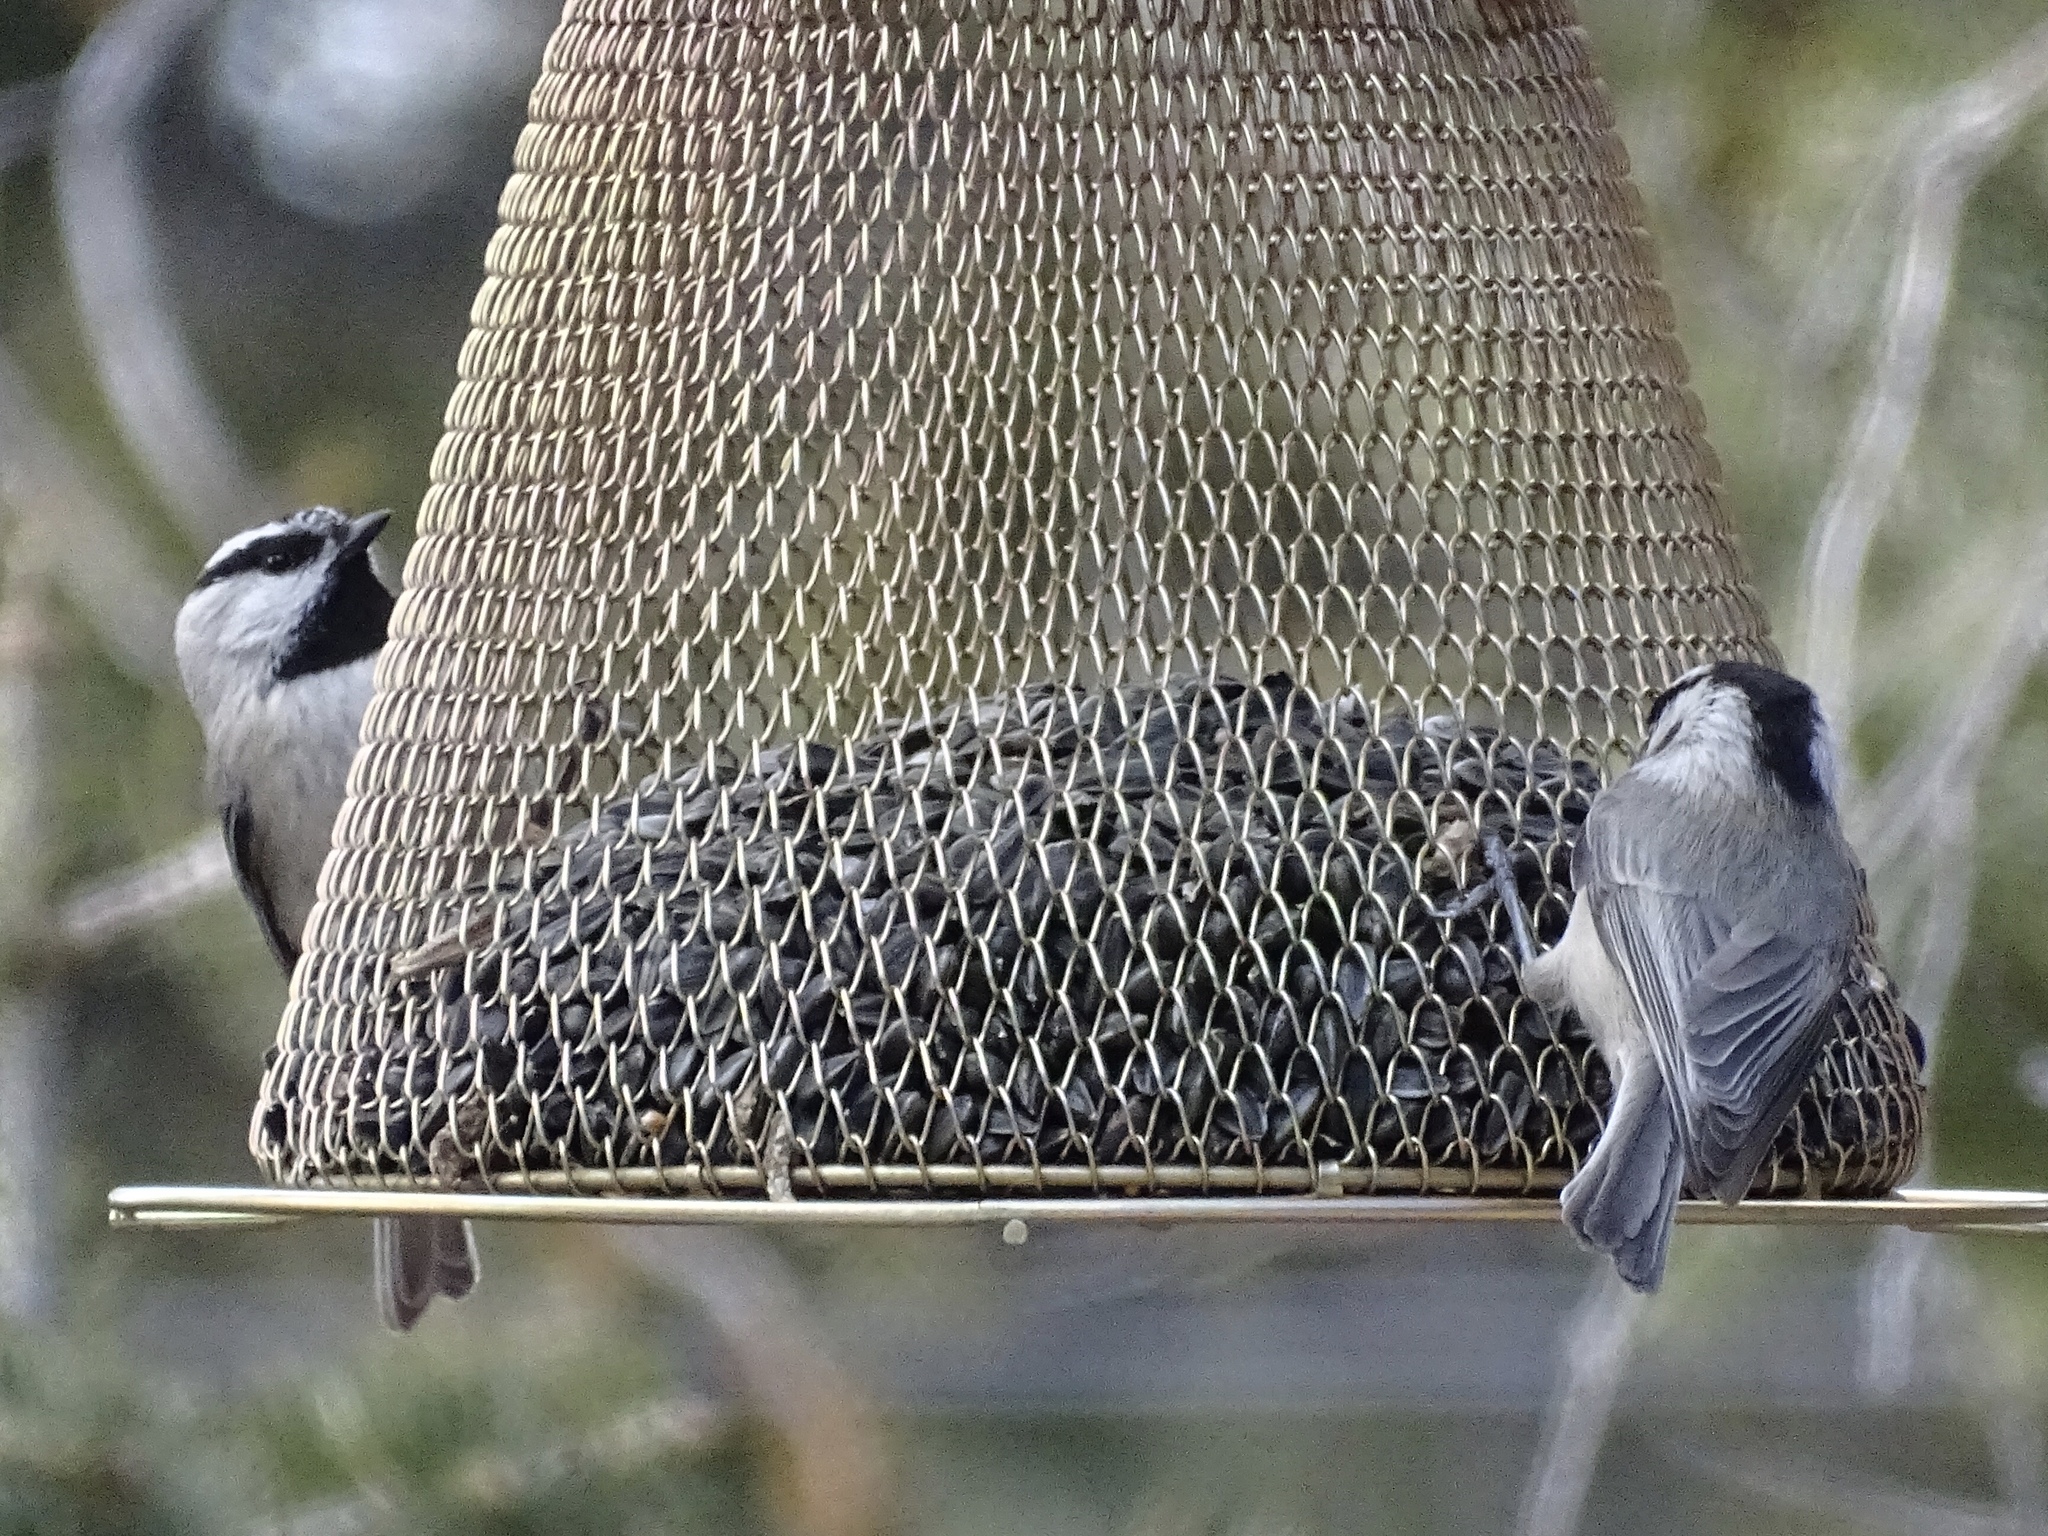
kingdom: Animalia
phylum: Chordata
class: Aves
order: Passeriformes
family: Paridae
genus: Poecile
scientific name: Poecile gambeli
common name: Mountain chickadee
